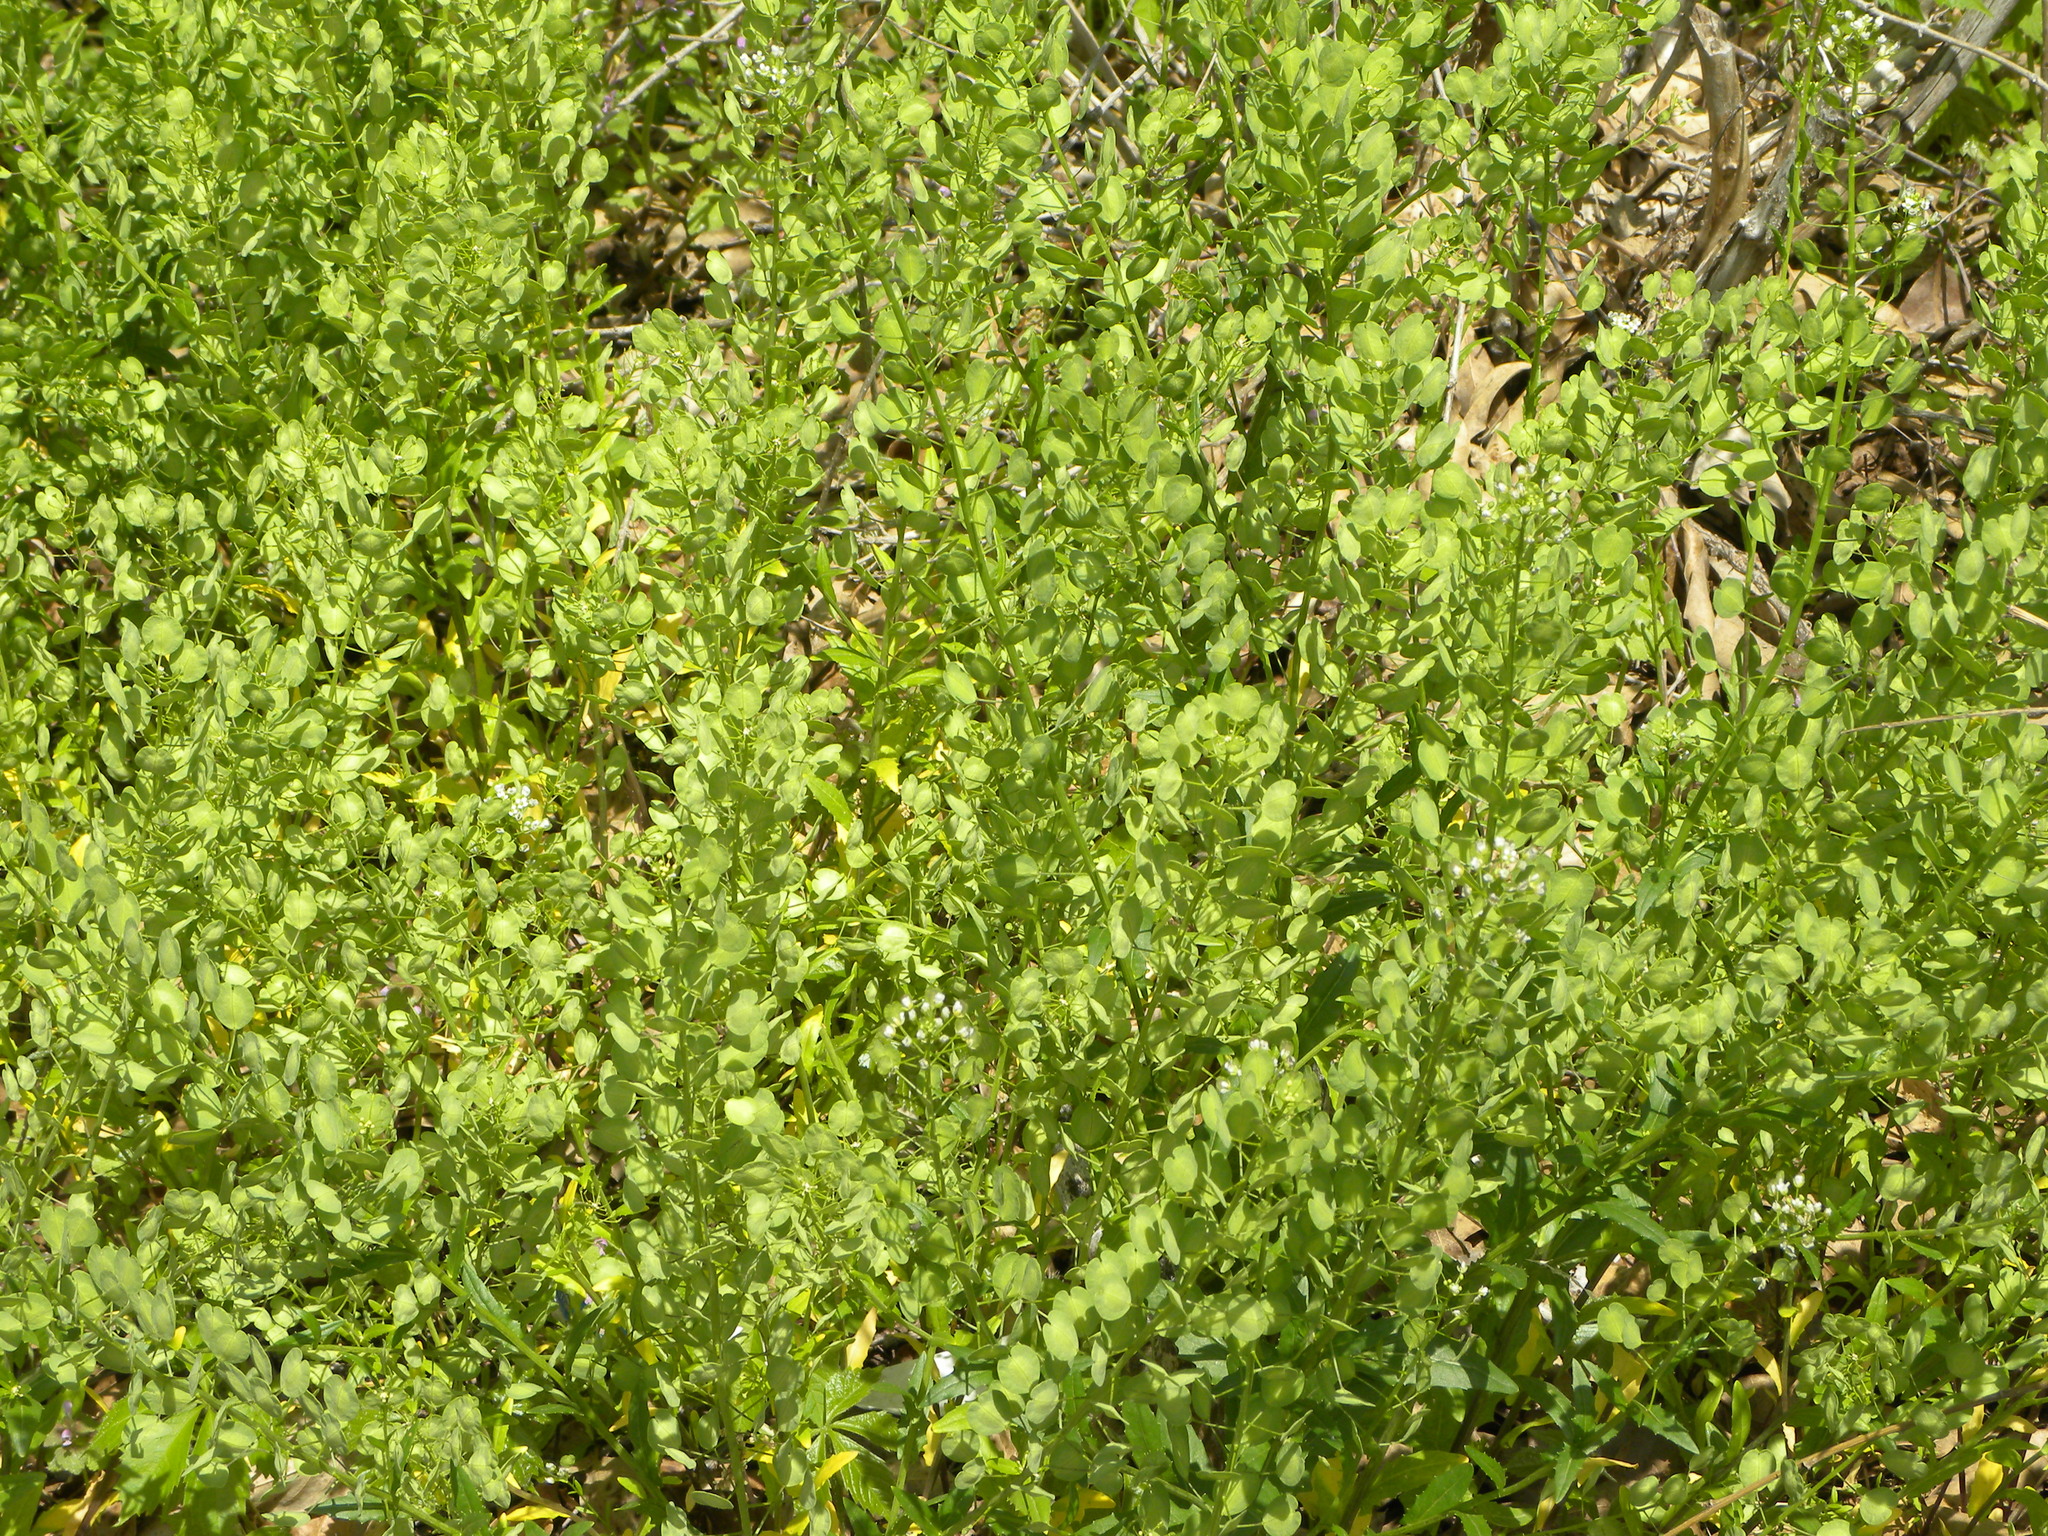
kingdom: Plantae
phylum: Tracheophyta
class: Magnoliopsida
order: Brassicales
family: Brassicaceae
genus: Thlaspi
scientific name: Thlaspi arvense
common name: Field pennycress
